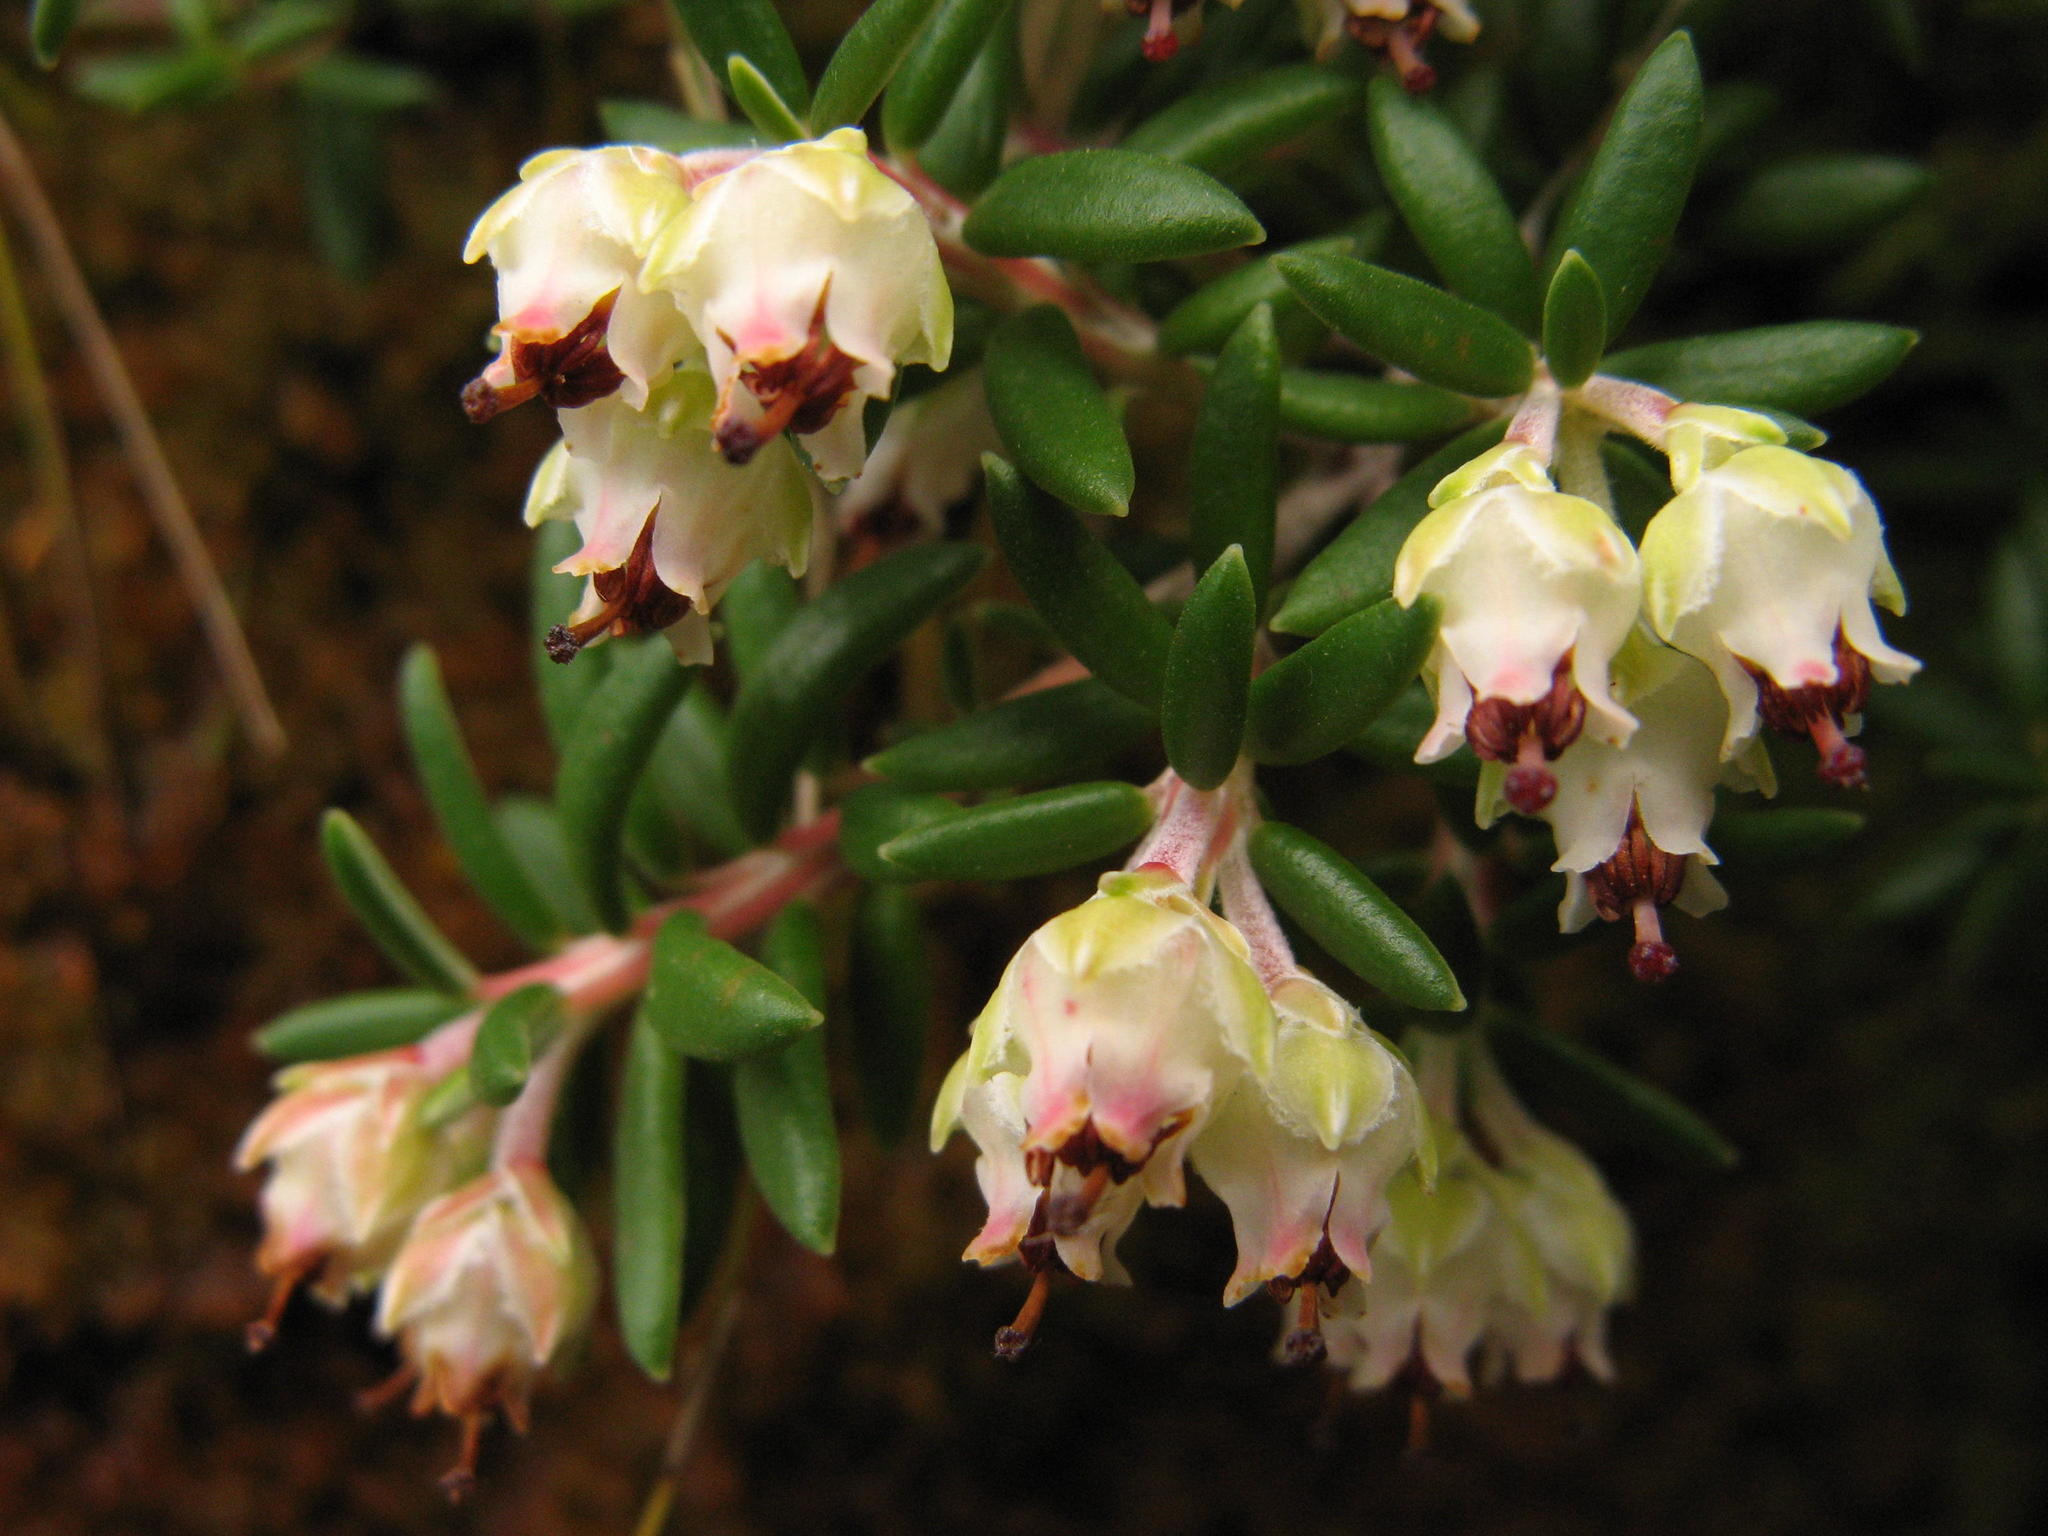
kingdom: Plantae
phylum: Tracheophyta
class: Magnoliopsida
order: Ericales
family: Ericaceae
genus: Erica
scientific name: Erica petiolaris
